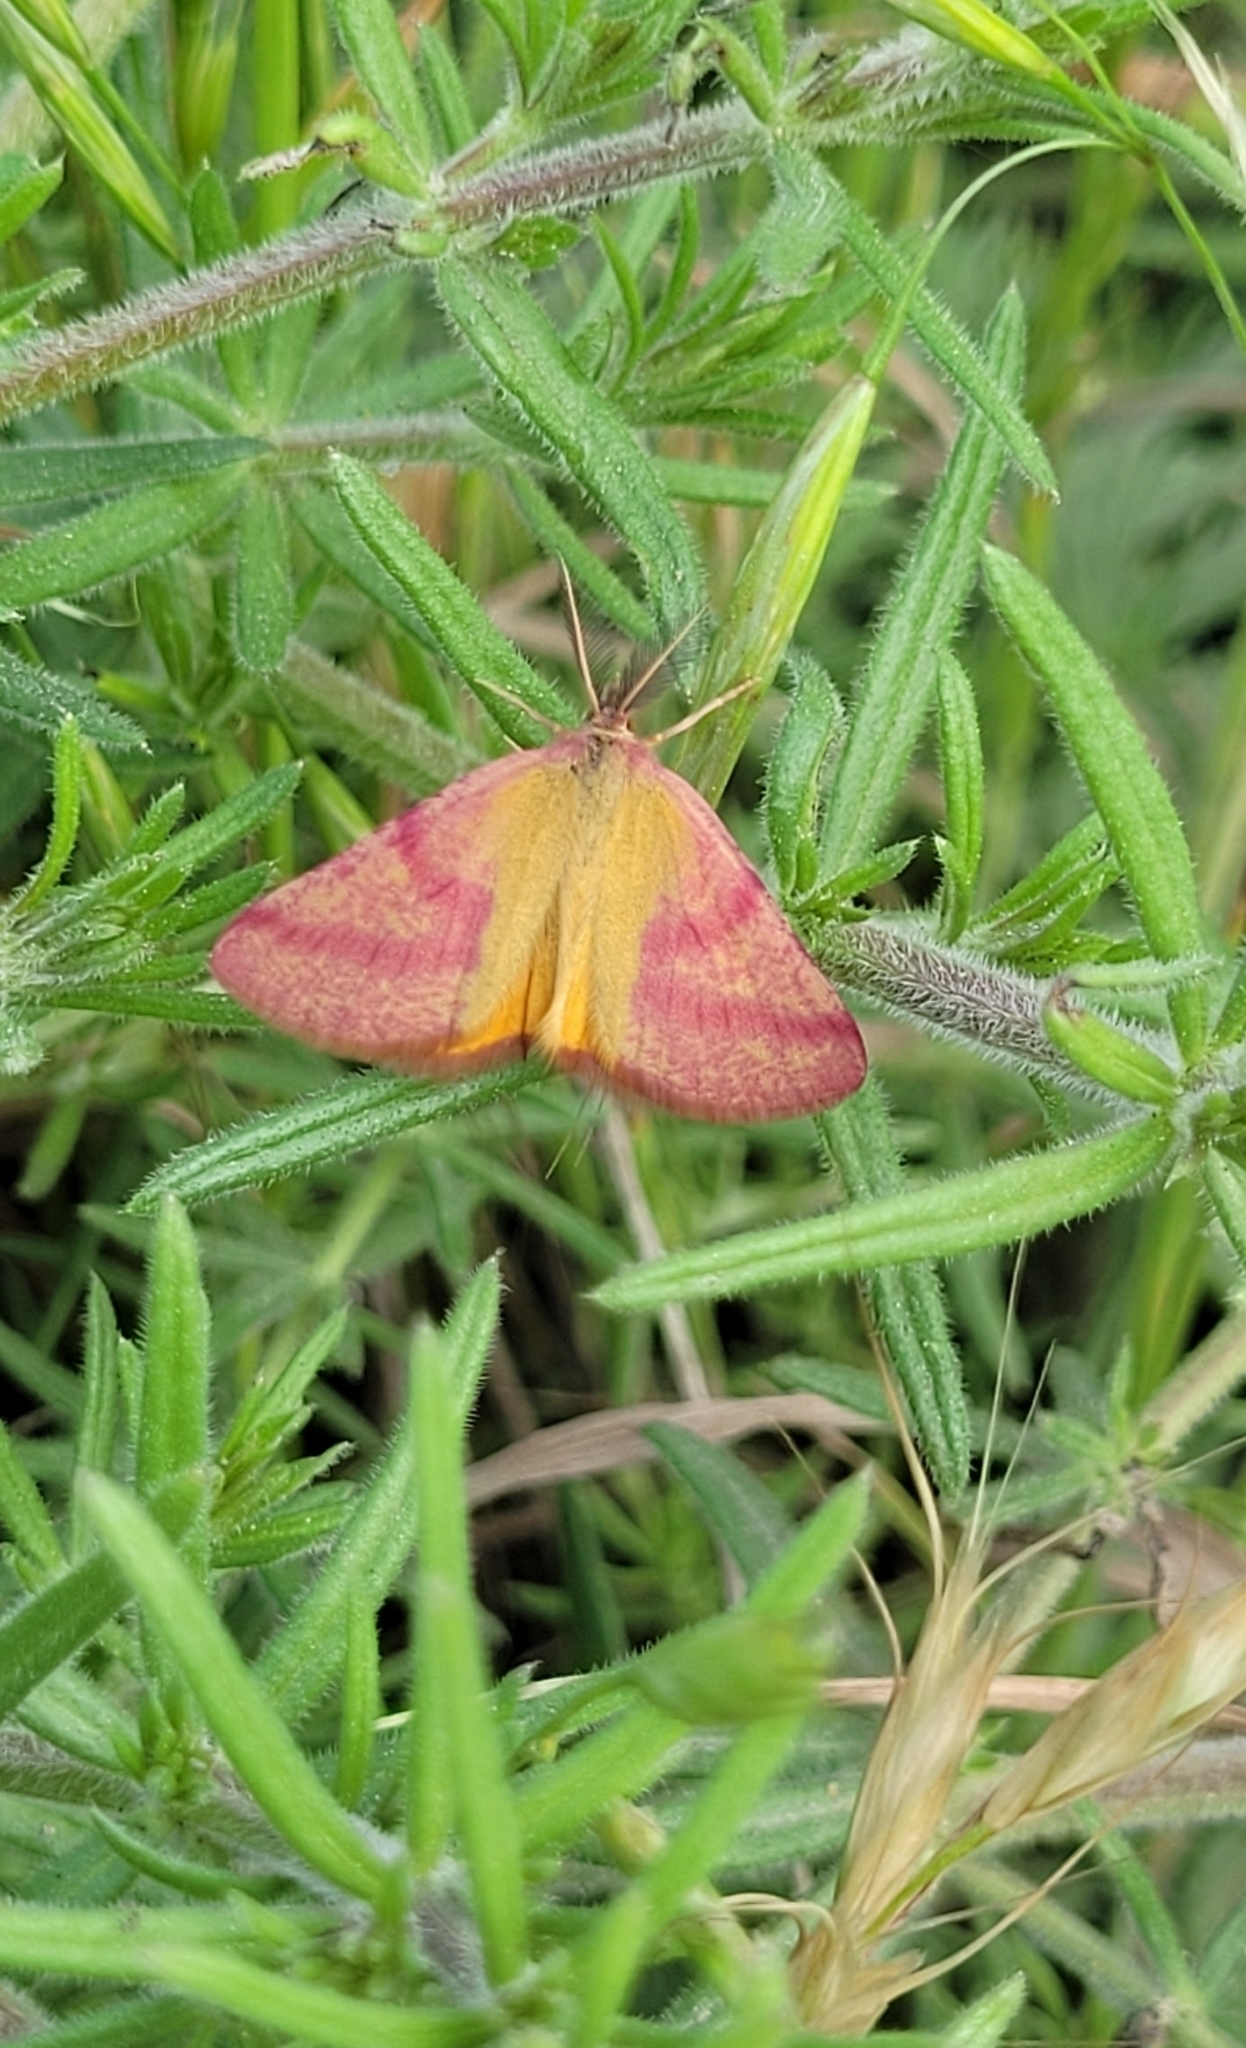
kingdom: Animalia
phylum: Arthropoda
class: Insecta
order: Lepidoptera
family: Geometridae
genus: Lythria
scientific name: Lythria purpuraria
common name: Purple-barred yellow
